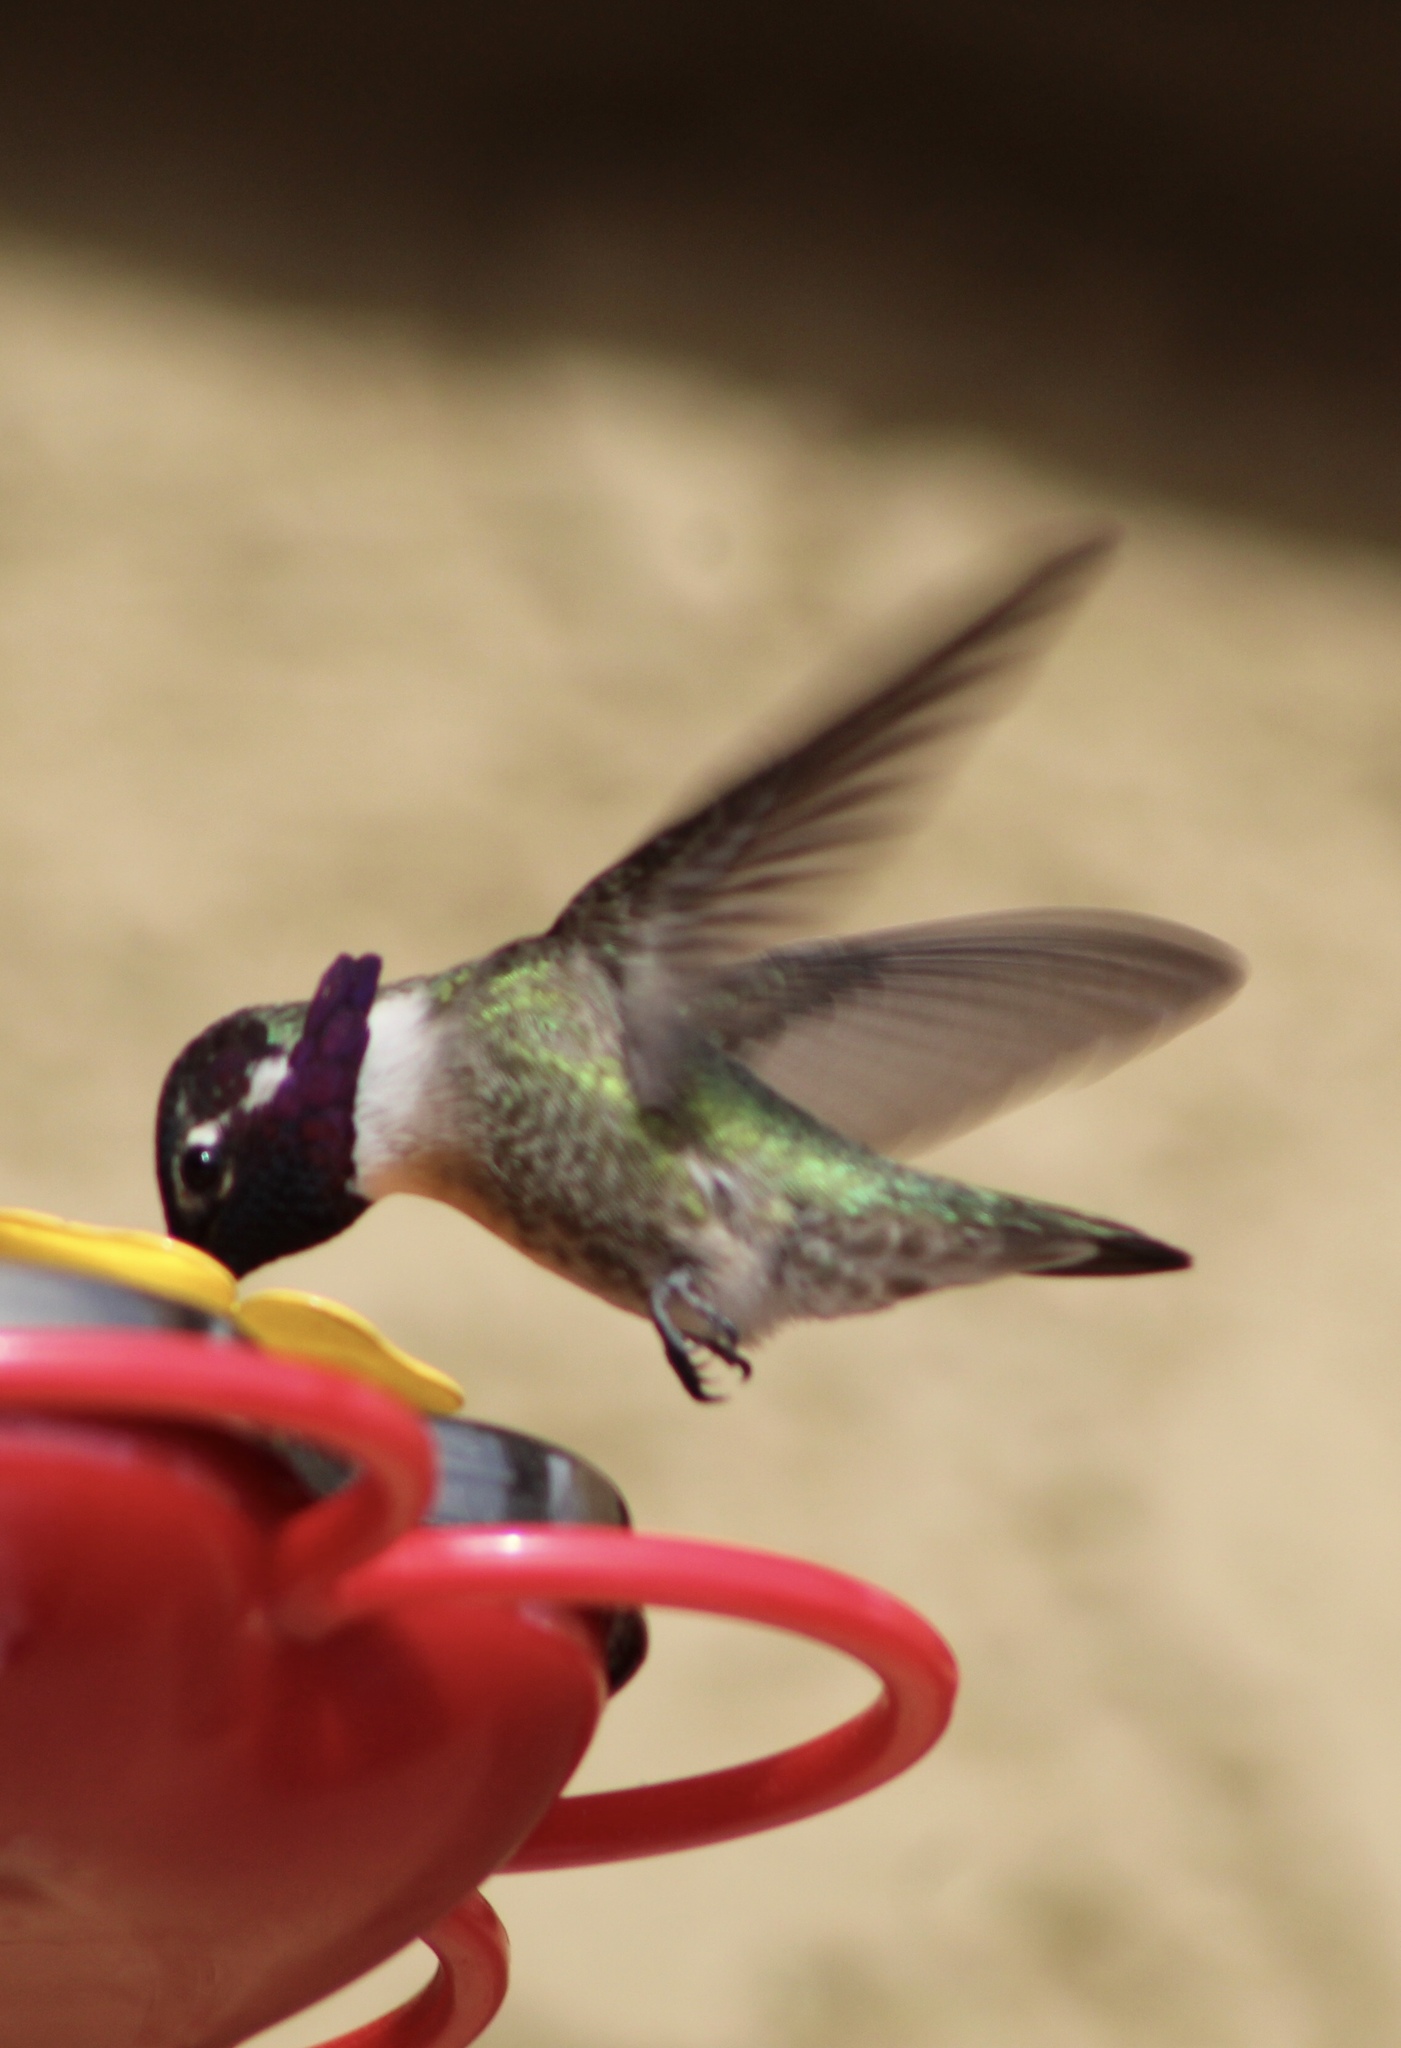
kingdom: Animalia
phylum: Chordata
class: Aves
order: Apodiformes
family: Trochilidae
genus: Calypte
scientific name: Calypte costae
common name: Costa's hummingbird
